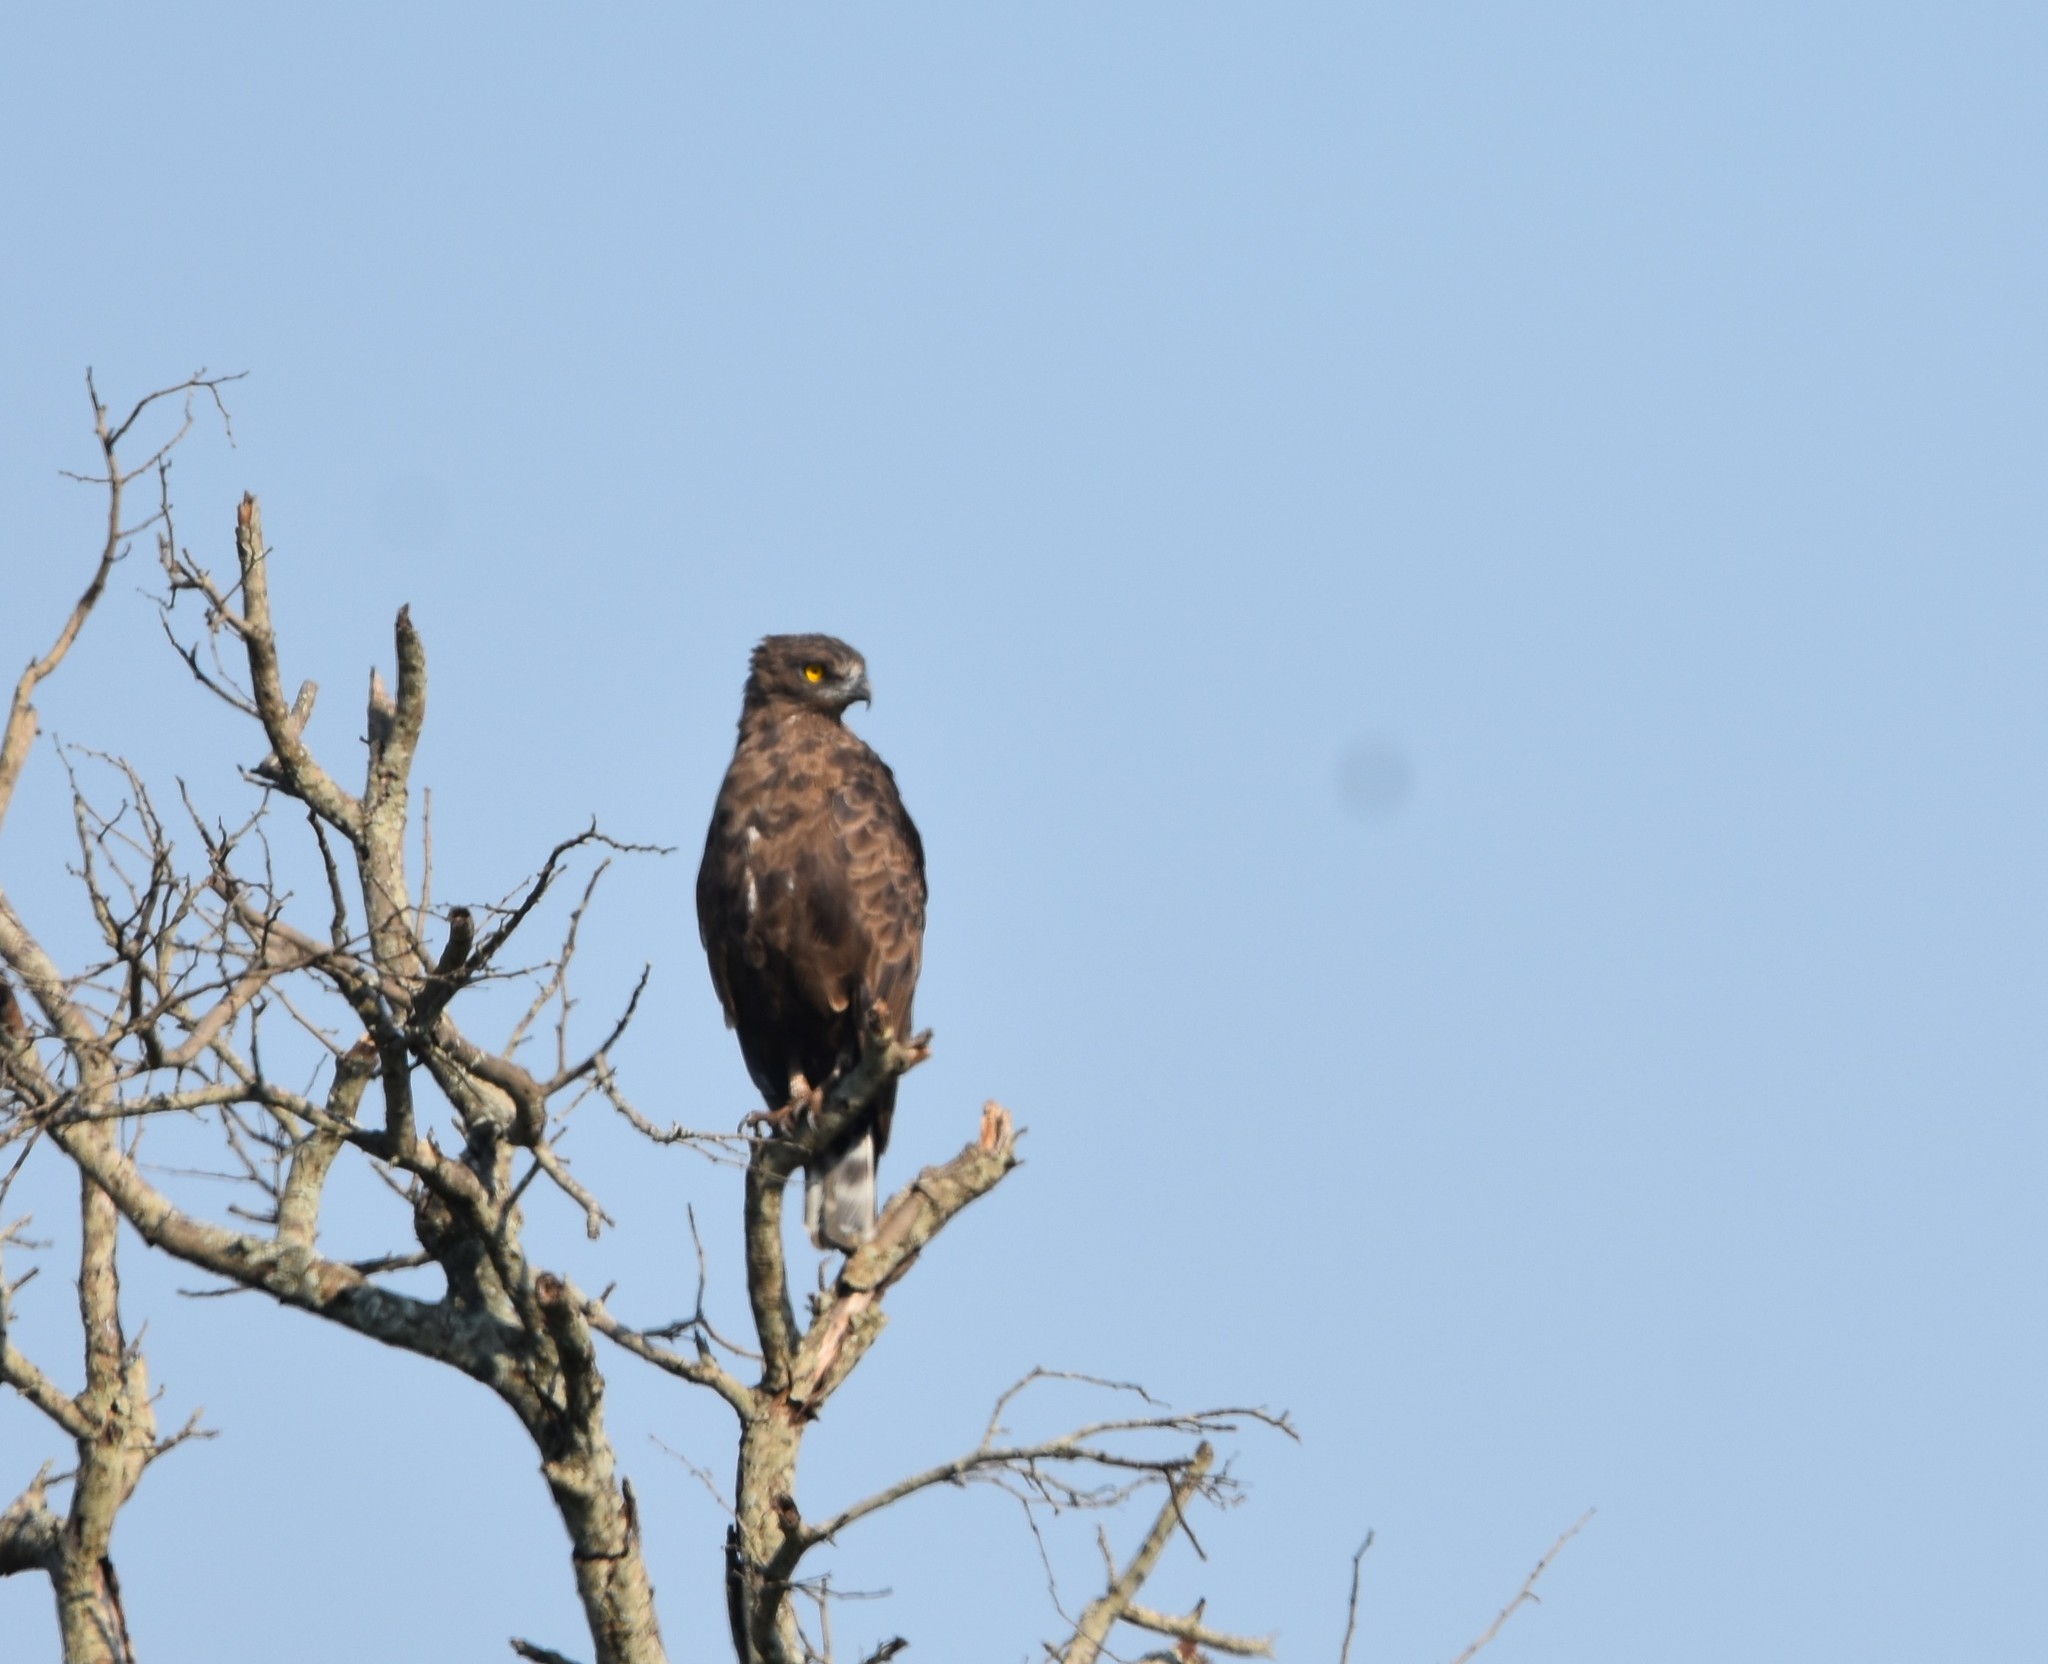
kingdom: Animalia
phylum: Chordata
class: Aves
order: Accipitriformes
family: Accipitridae
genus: Circaetus
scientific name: Circaetus cinereus
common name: Brown snake eagle
